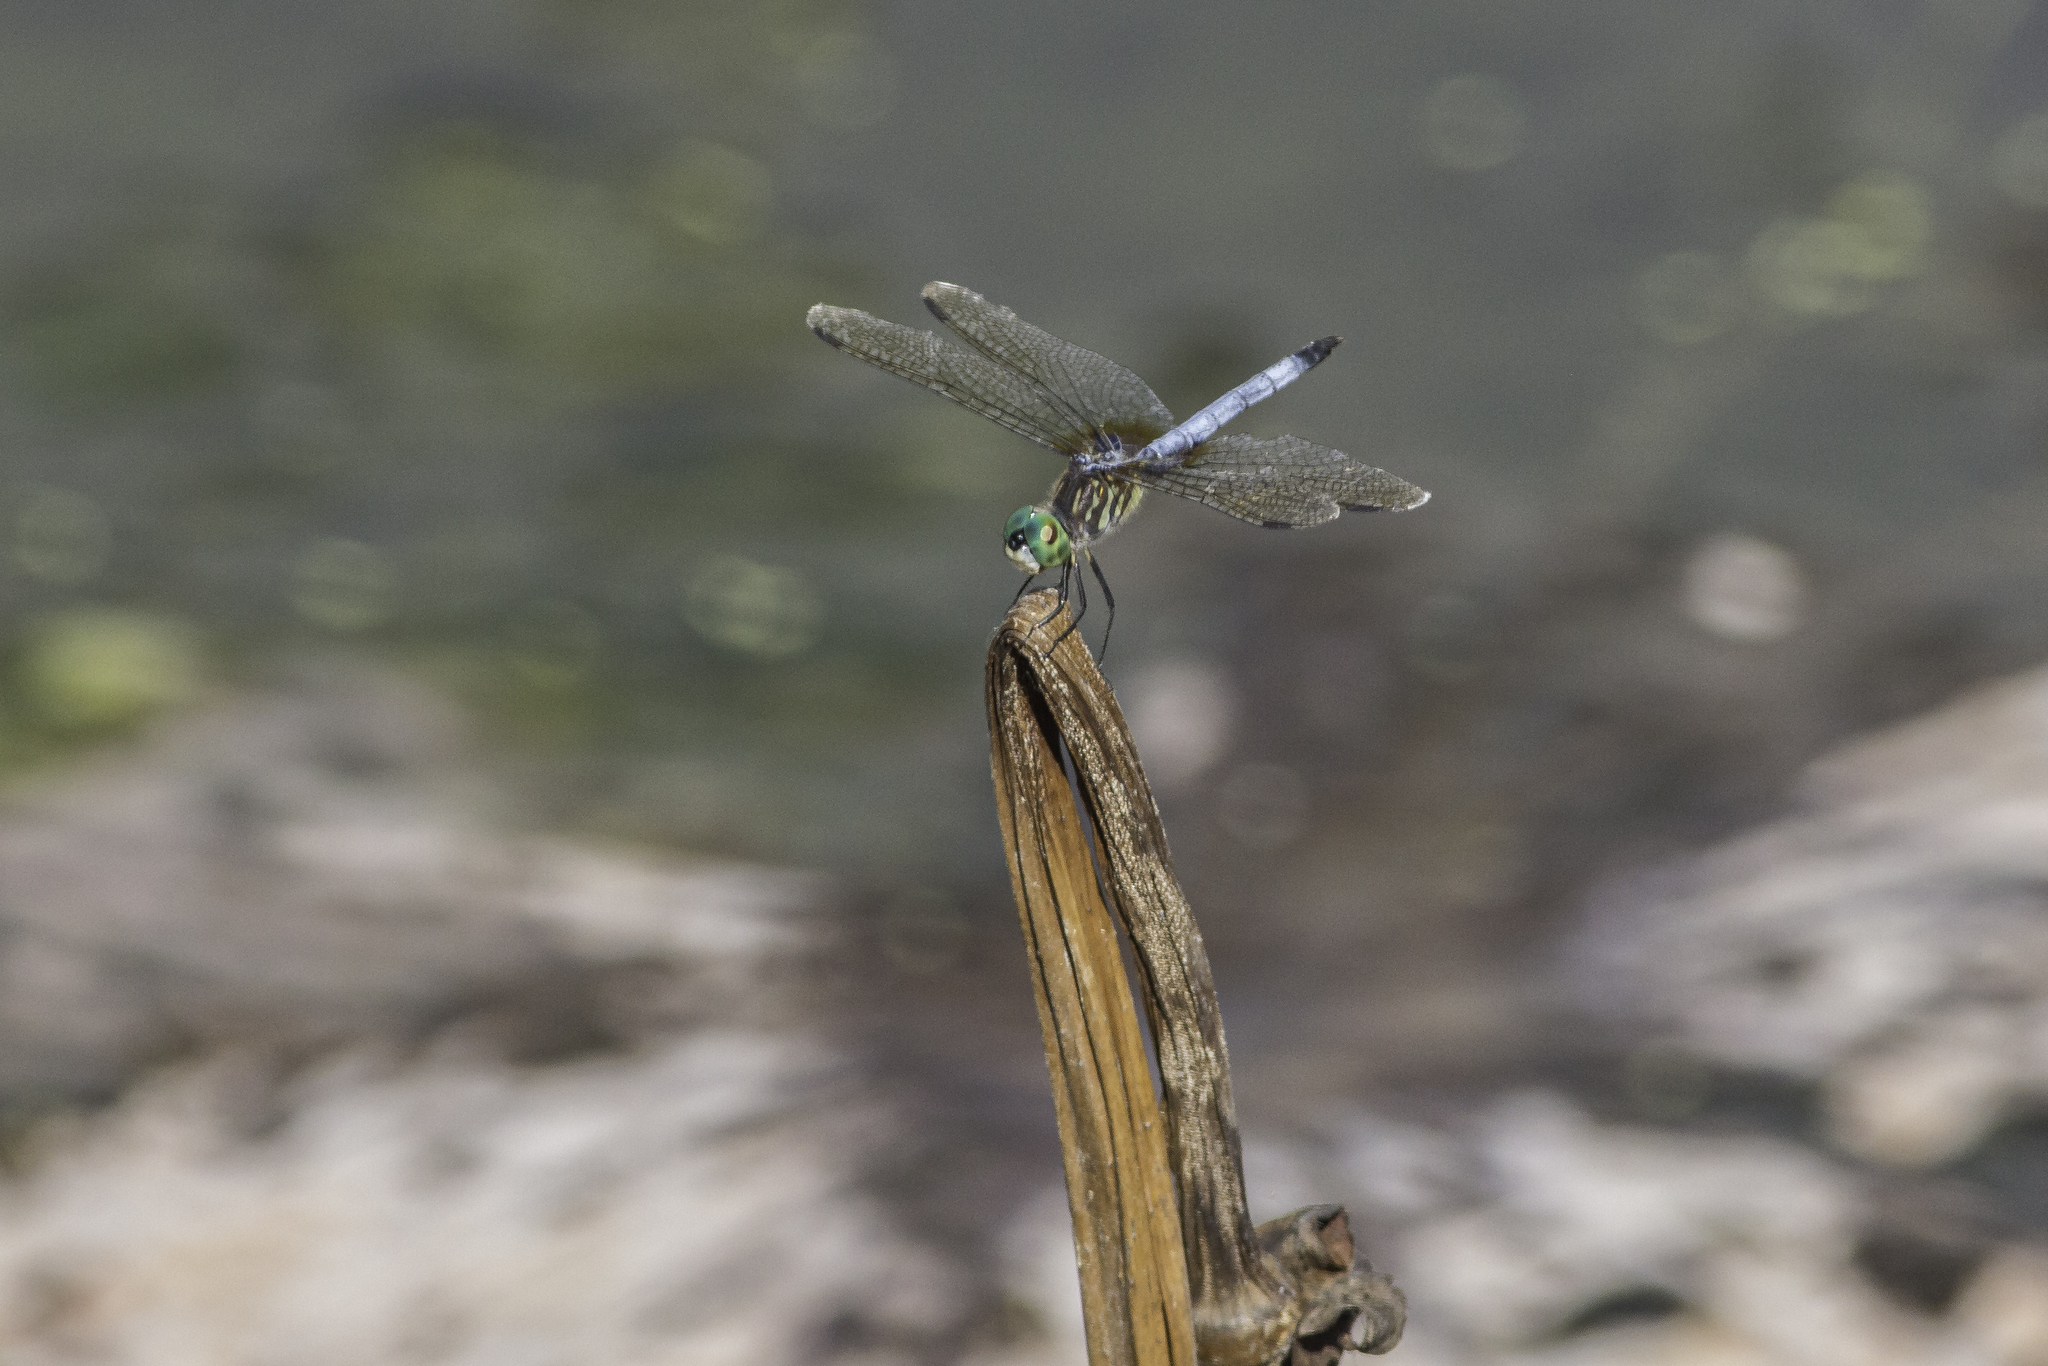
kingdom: Animalia
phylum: Arthropoda
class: Insecta
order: Odonata
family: Libellulidae
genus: Pachydiplax
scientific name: Pachydiplax longipennis
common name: Blue dasher
